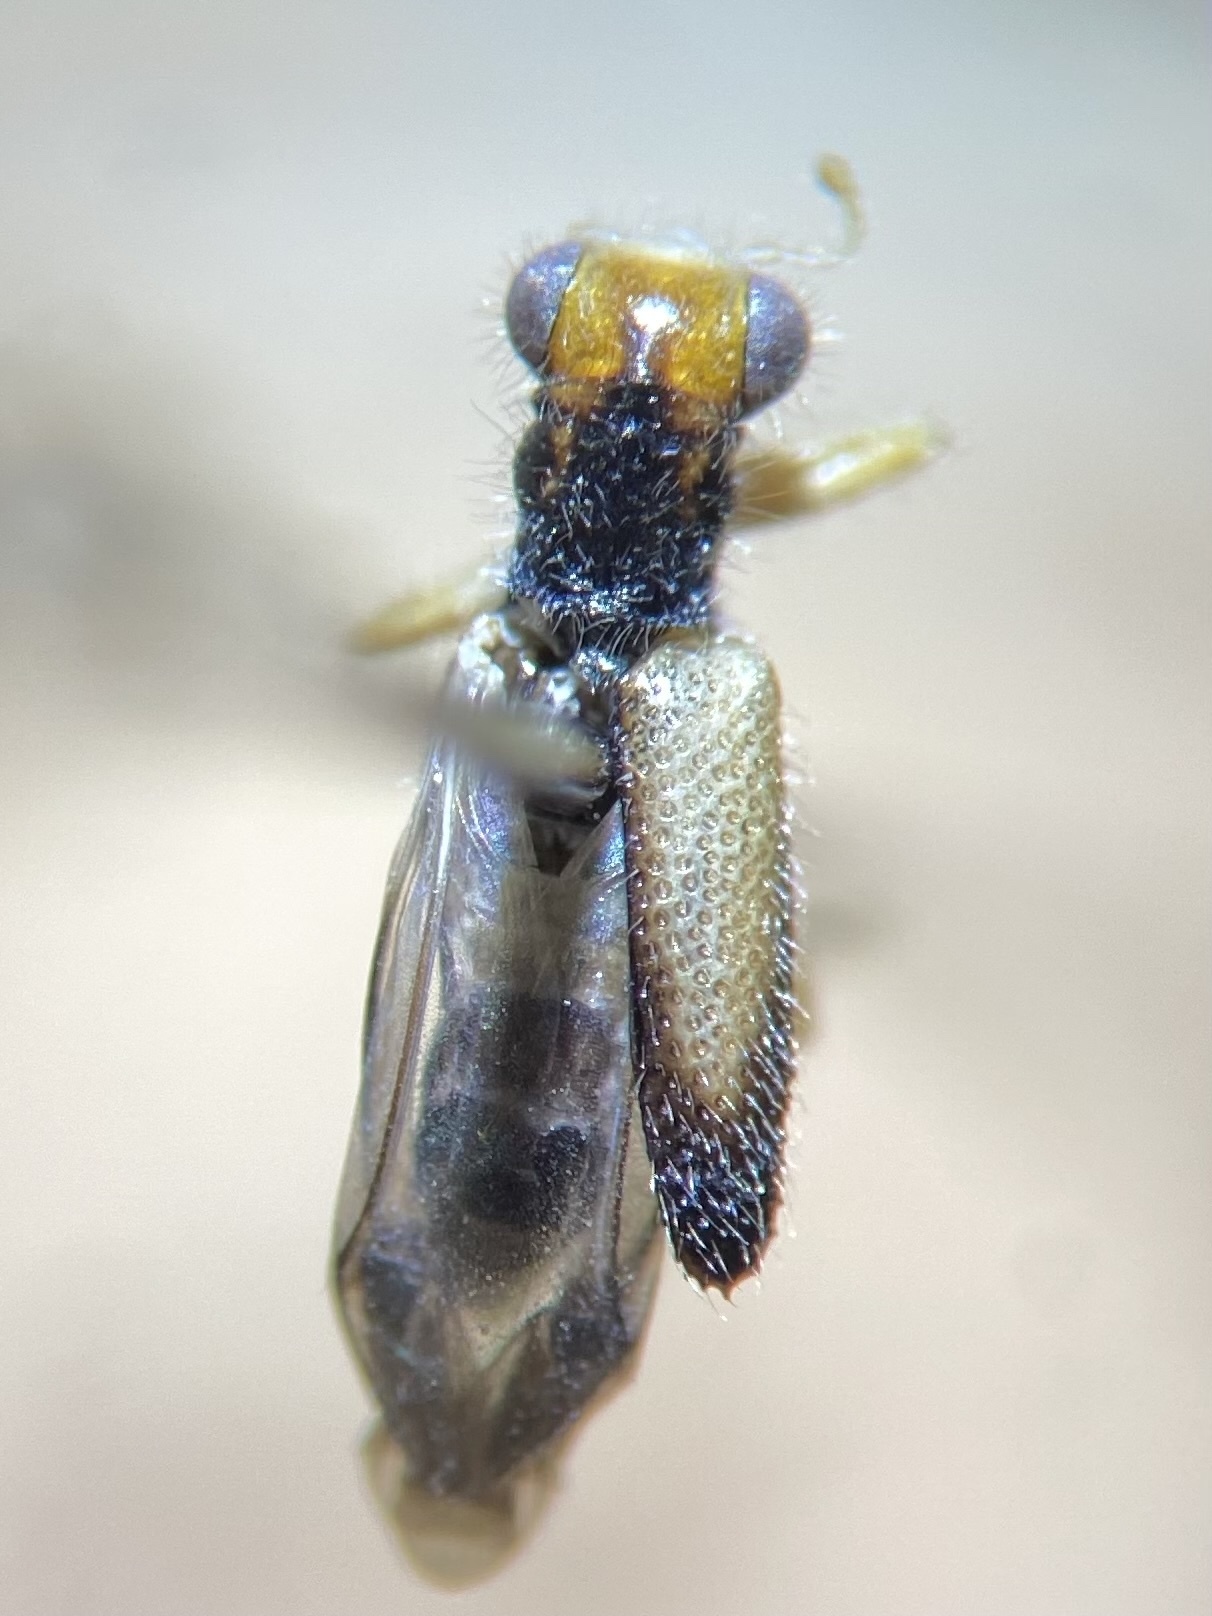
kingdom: Animalia
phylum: Arthropoda
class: Insecta
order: Coleoptera
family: Cleridae
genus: Phyllobaenus
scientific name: Phyllobaenus verticalis
